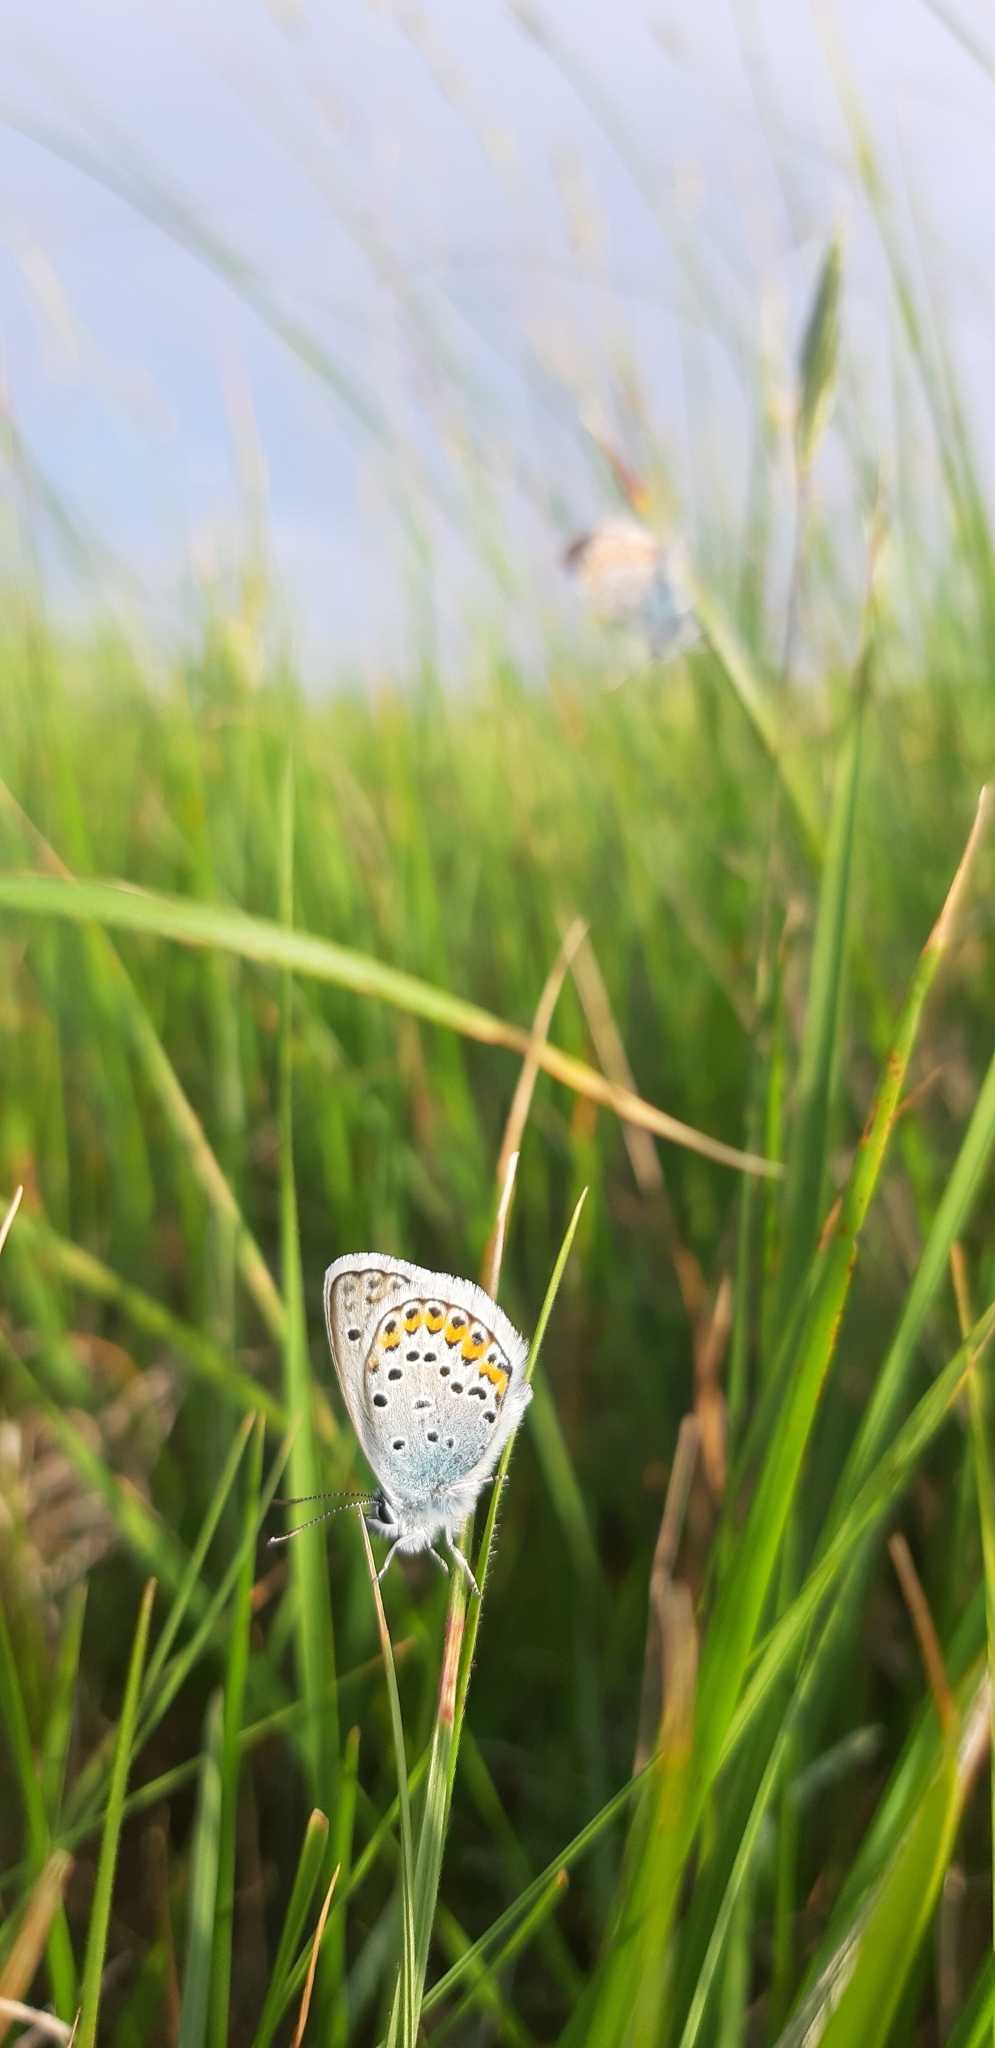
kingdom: Animalia
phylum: Arthropoda
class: Insecta
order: Lepidoptera
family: Lycaenidae
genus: Plebejus
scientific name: Plebejus argus
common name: Silver-studded blue
